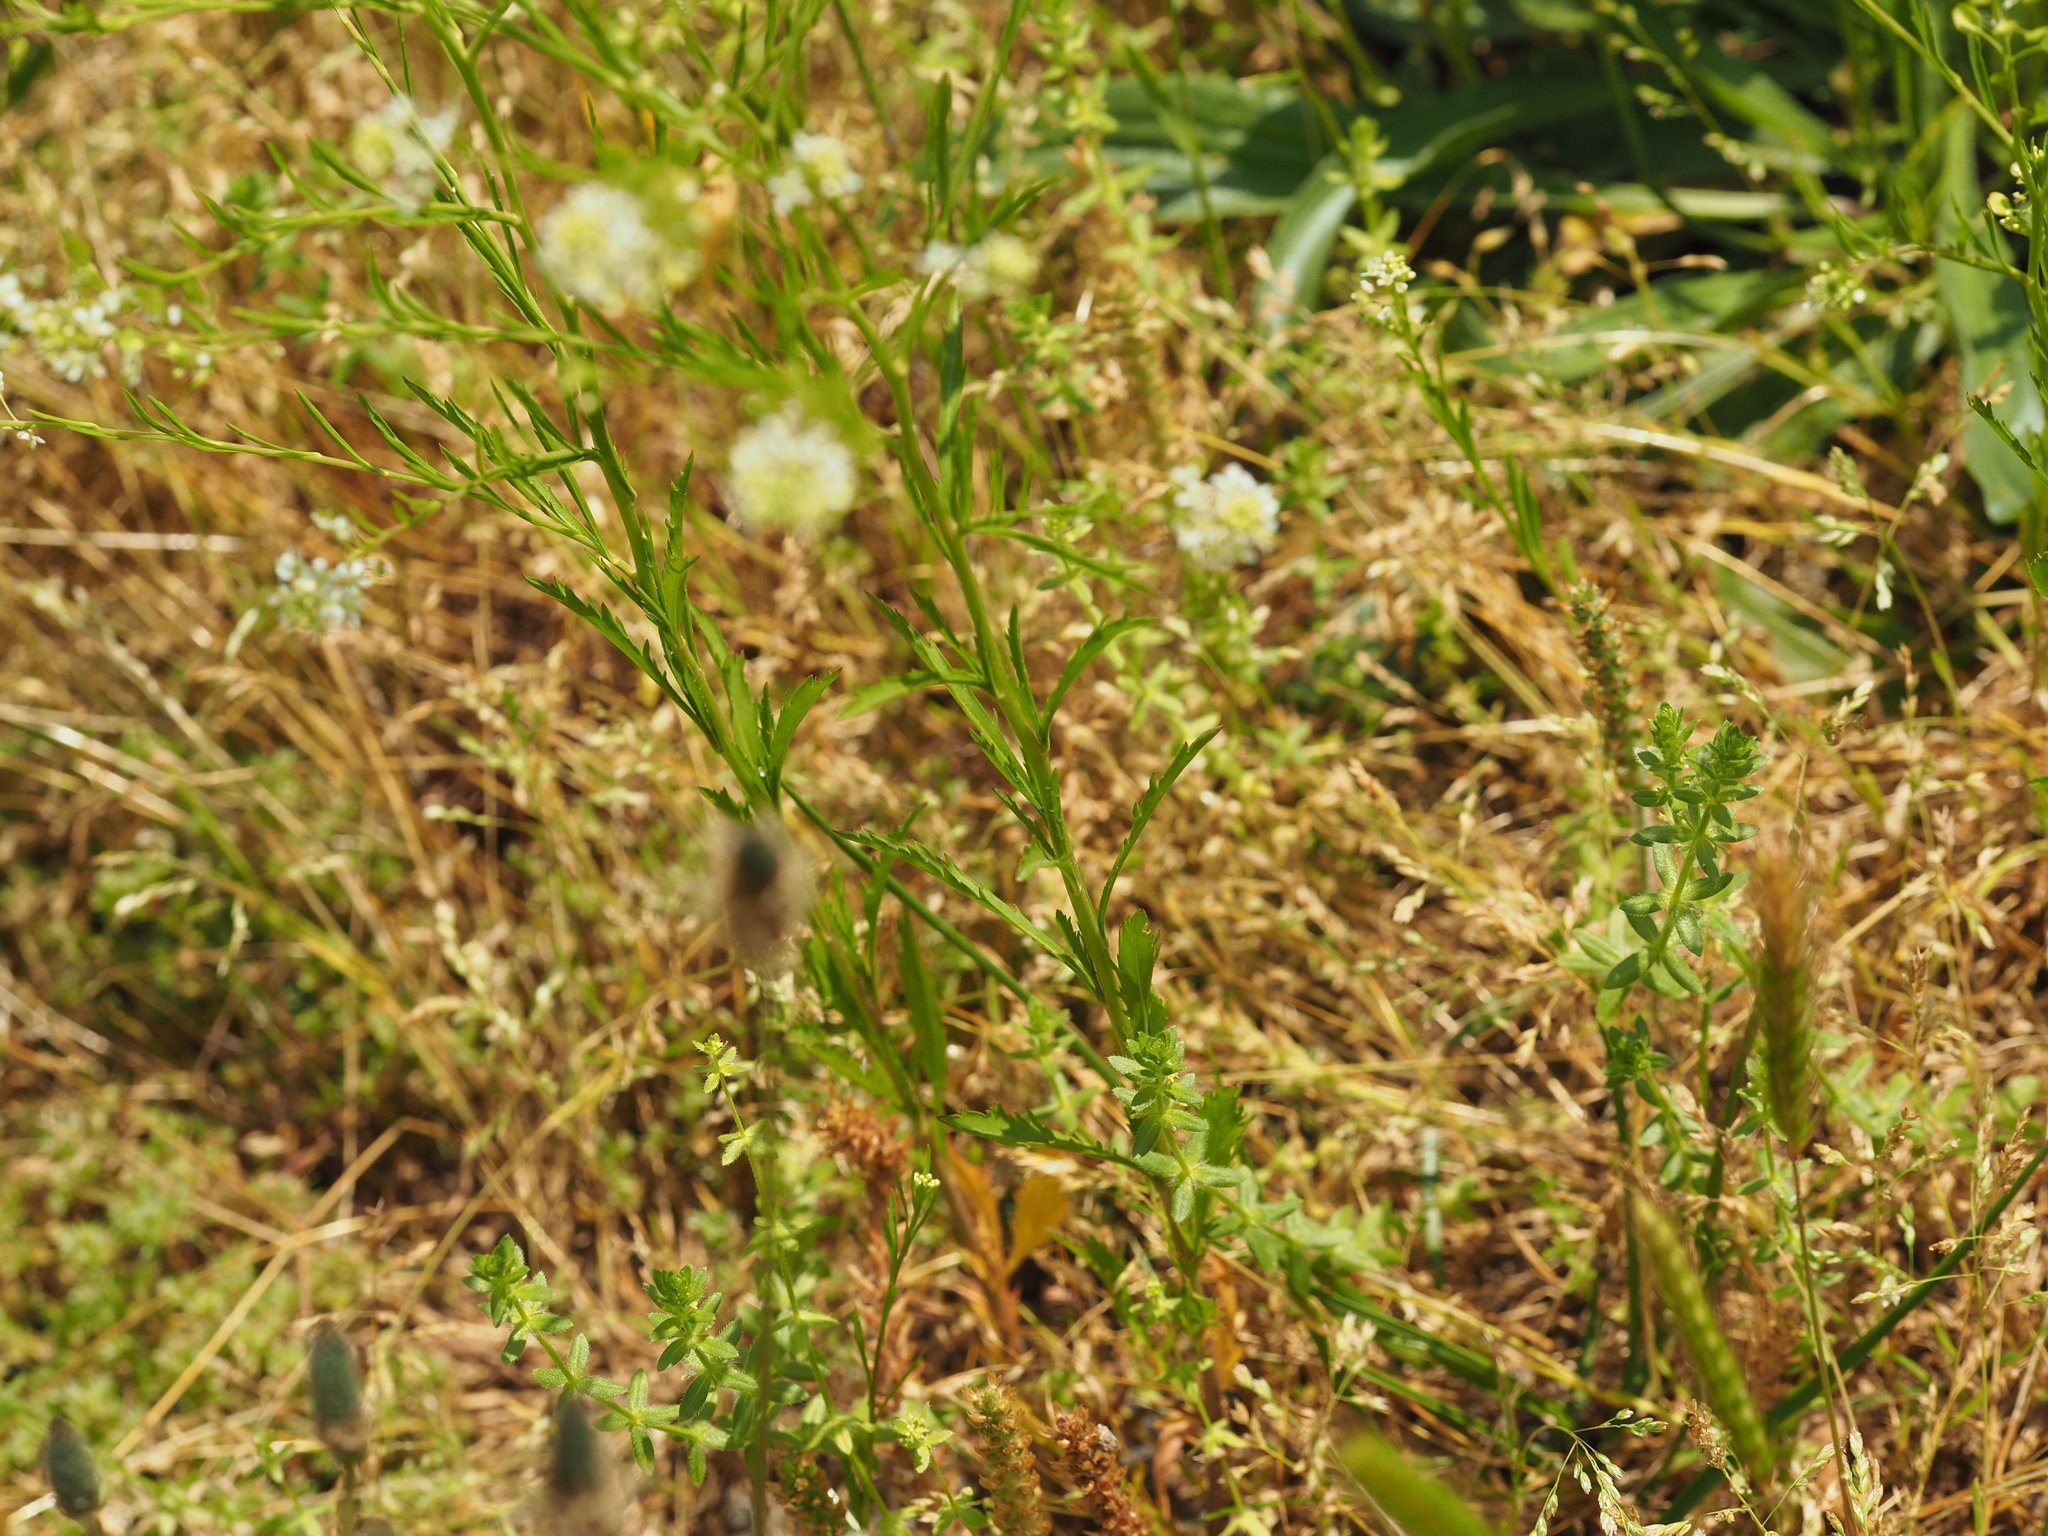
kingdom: Plantae
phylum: Tracheophyta
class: Magnoliopsida
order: Brassicales
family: Brassicaceae
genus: Lepidium
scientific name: Lepidium virginicum
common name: Least pepperwort
